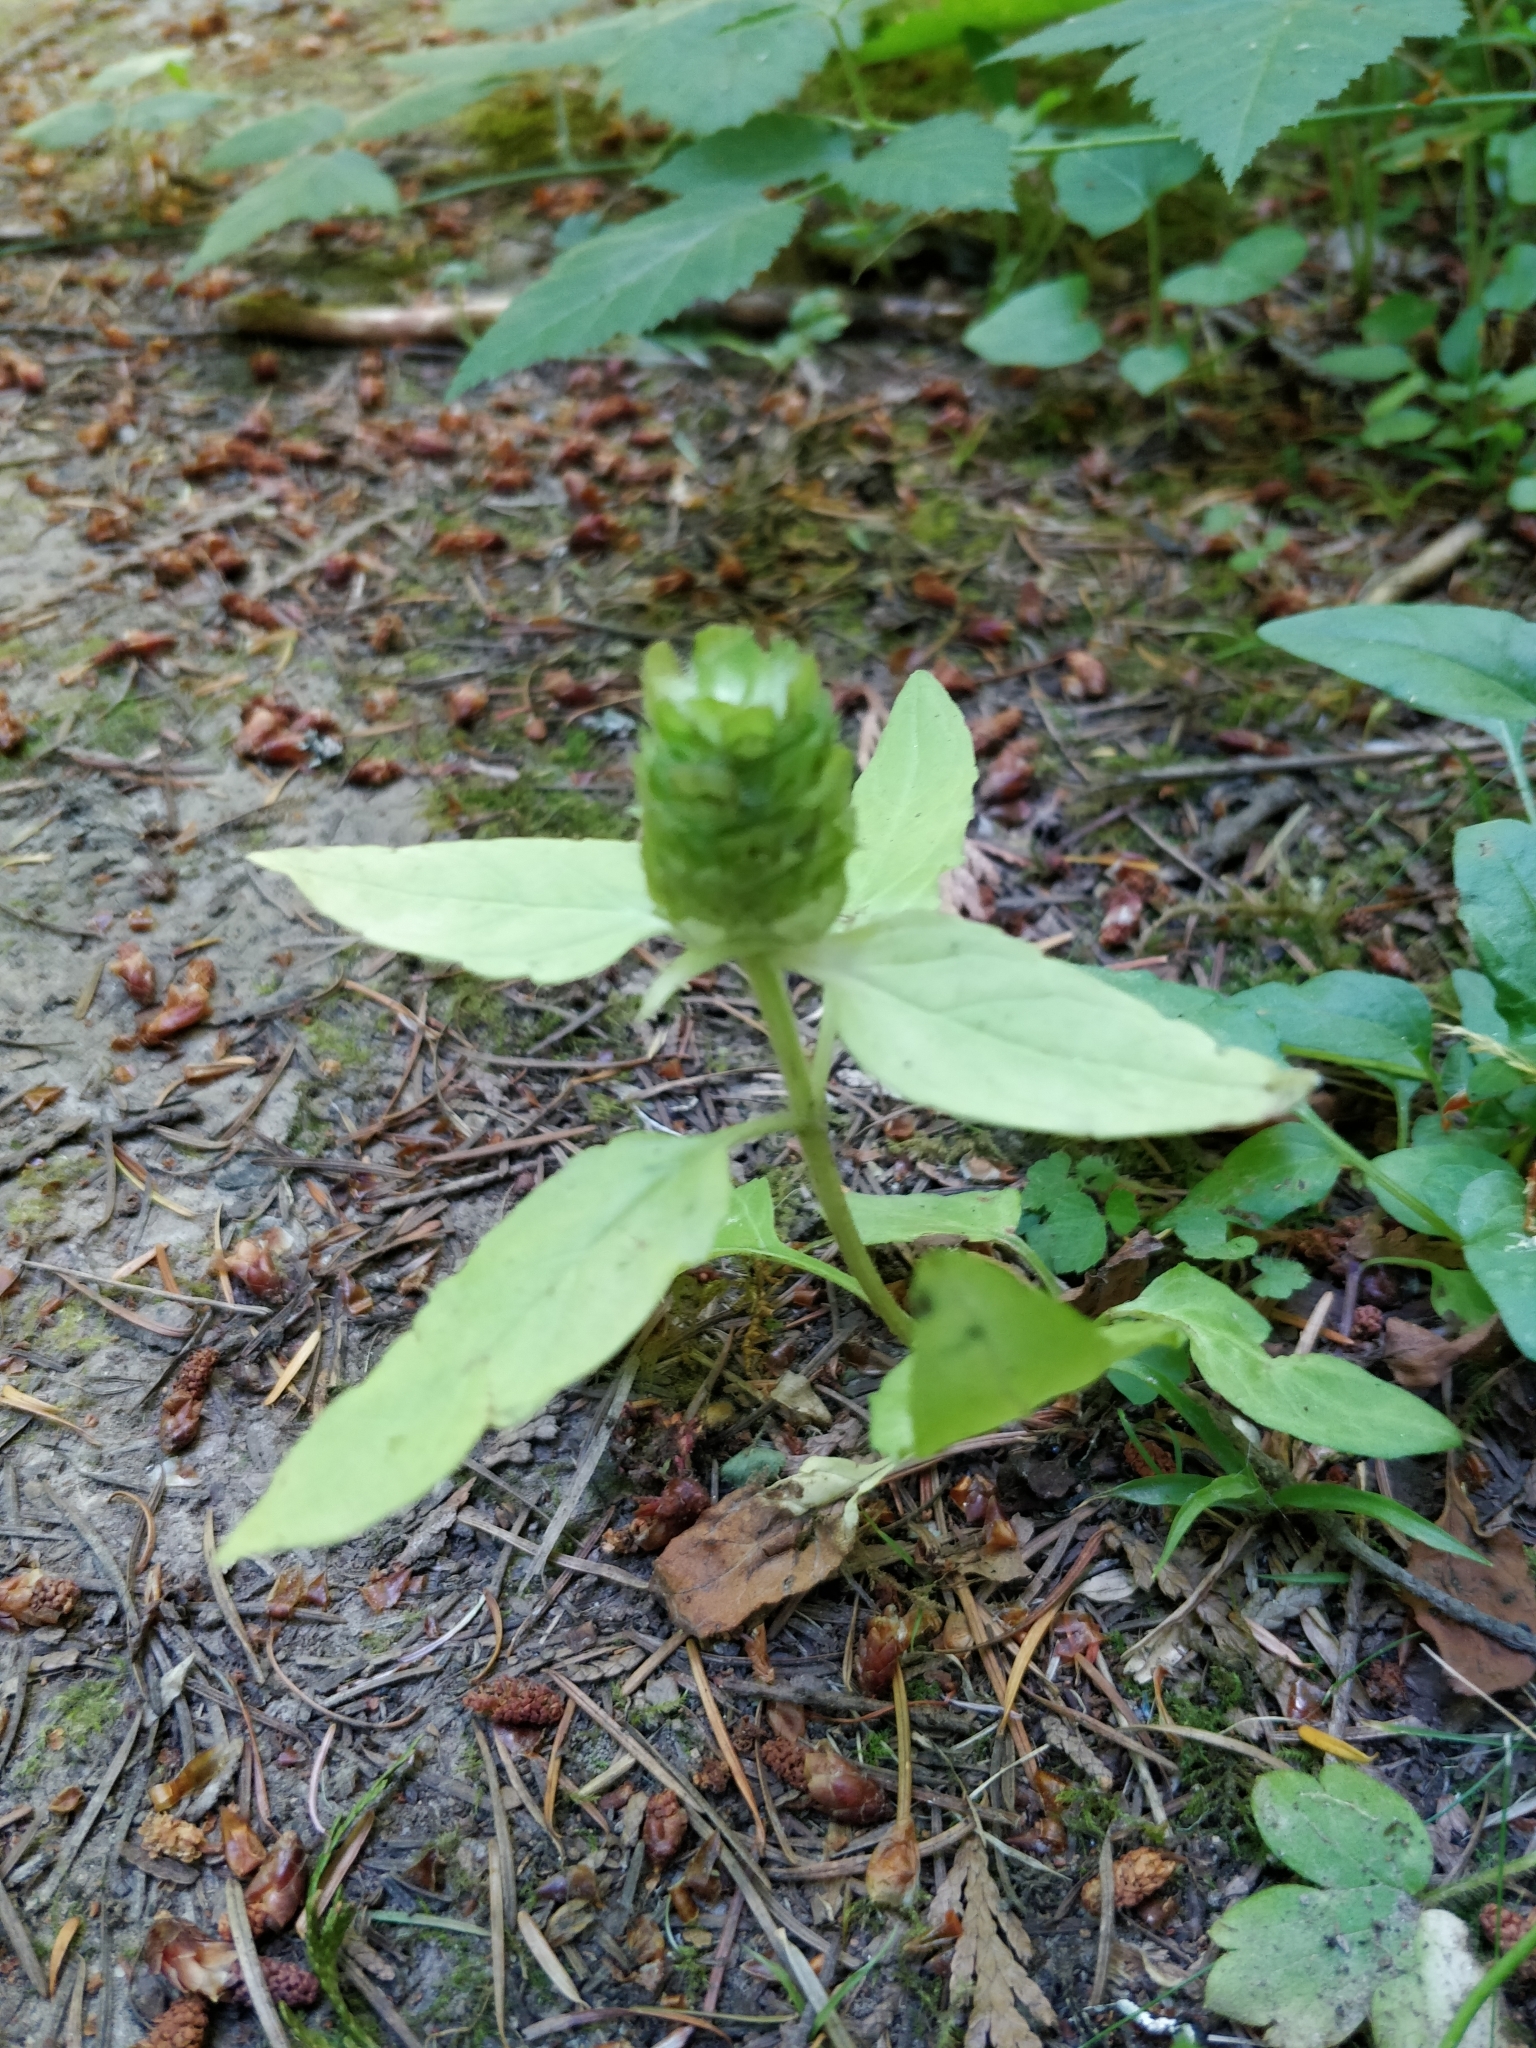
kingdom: Plantae
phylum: Tracheophyta
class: Magnoliopsida
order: Lamiales
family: Lamiaceae
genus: Prunella
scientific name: Prunella vulgaris
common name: Heal-all
